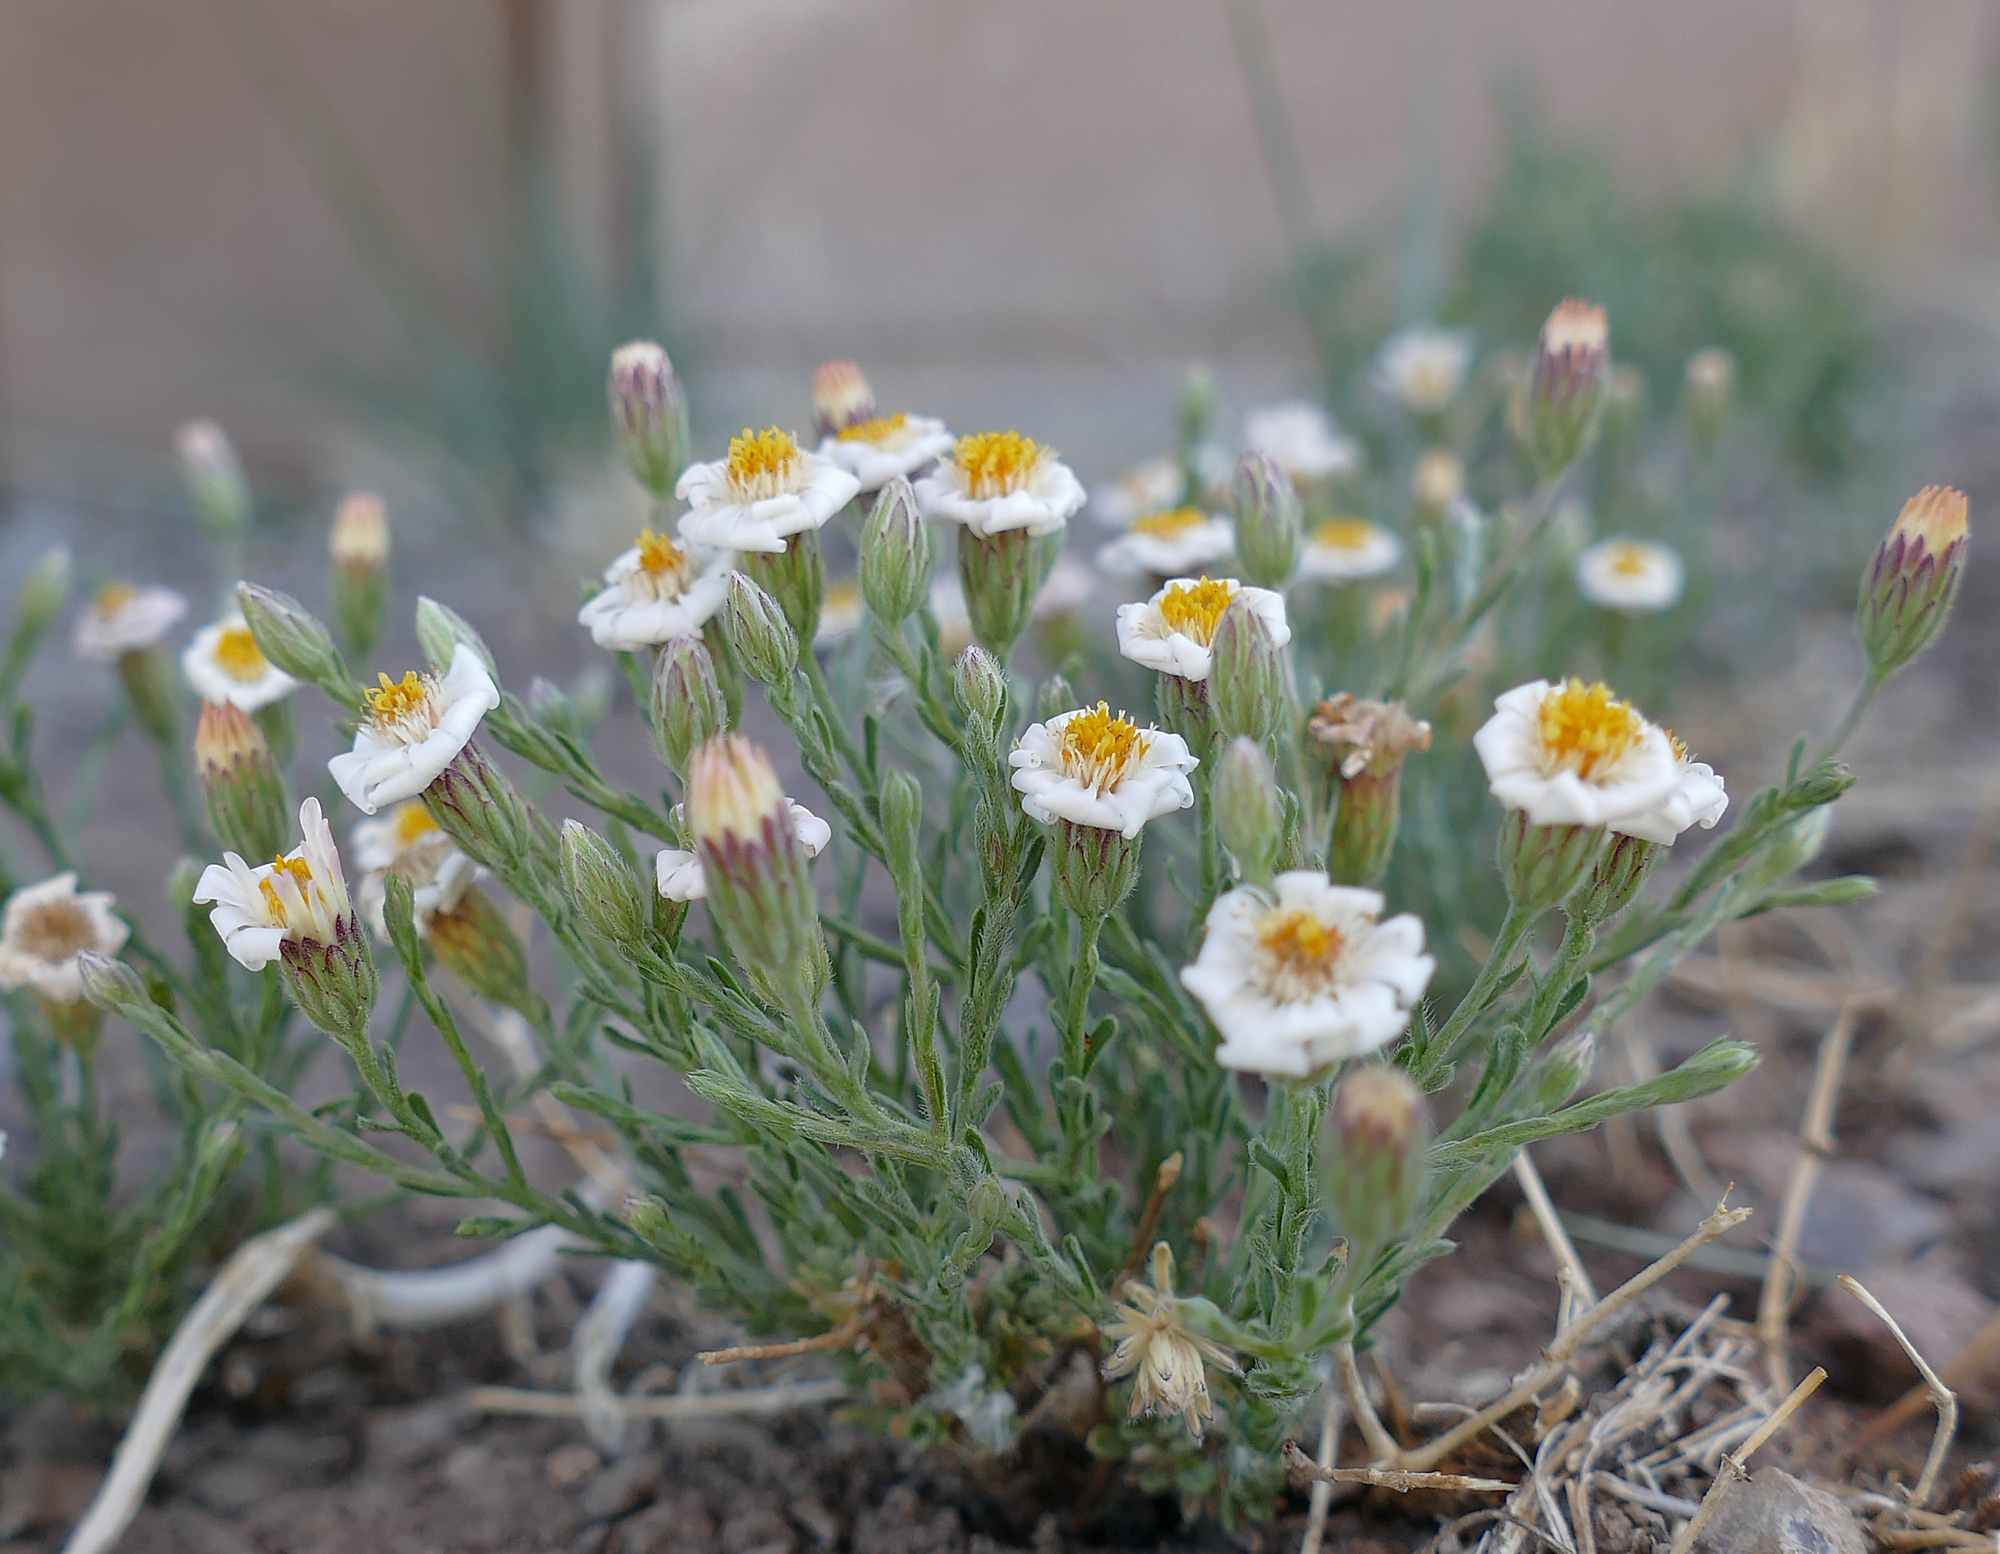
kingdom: Plantae
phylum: Tracheophyta
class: Magnoliopsida
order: Asterales
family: Asteraceae
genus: Chaetopappa
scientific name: Chaetopappa ericoides
